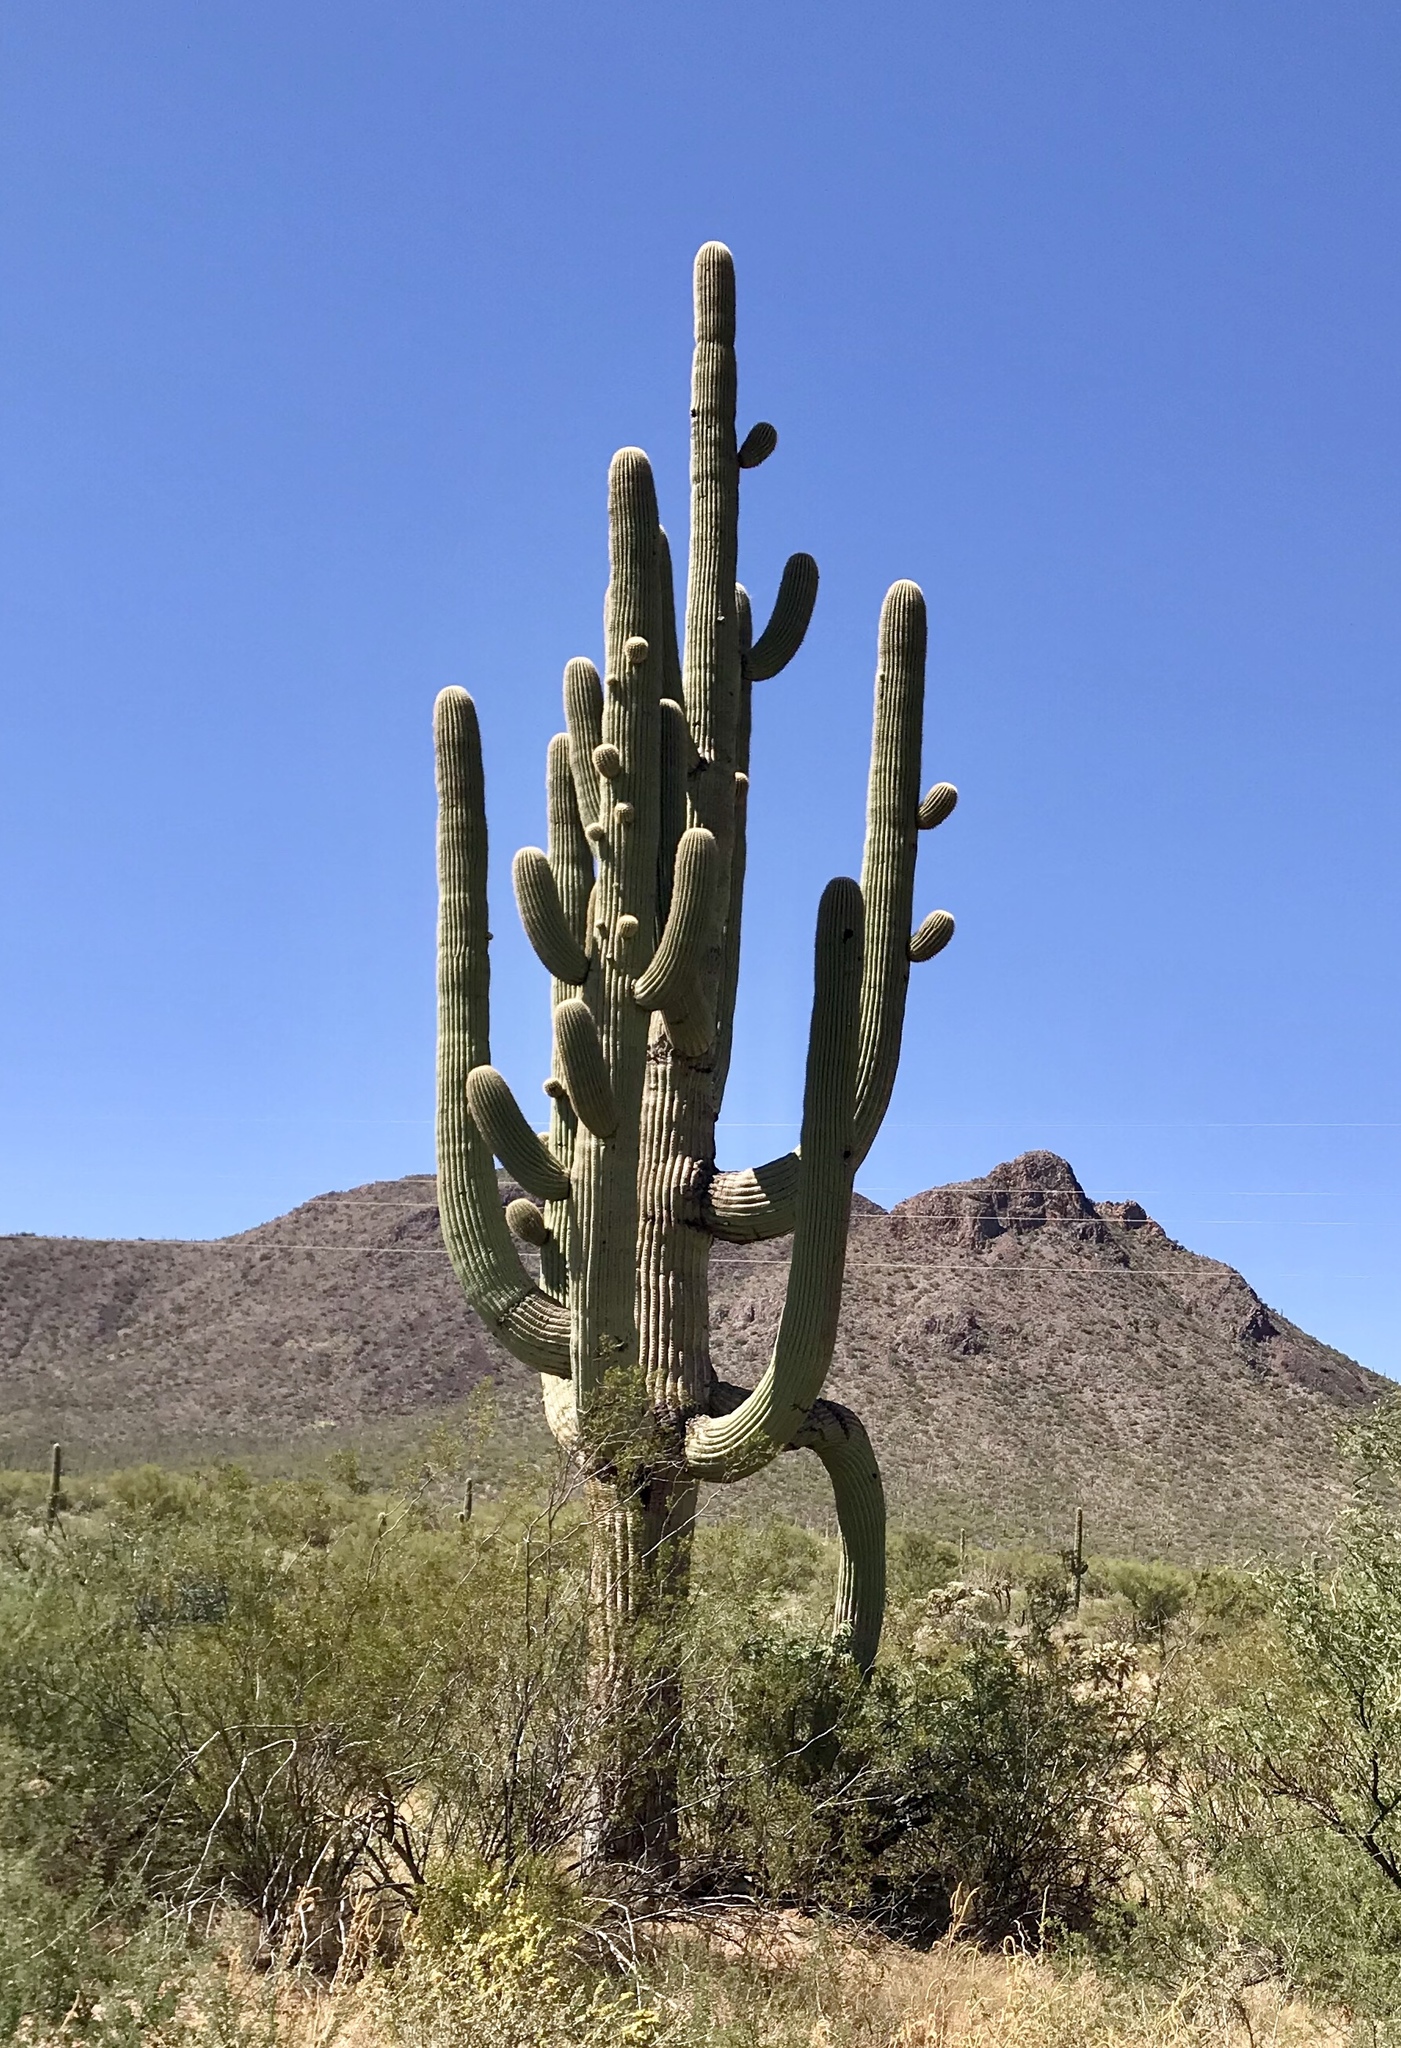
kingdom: Plantae
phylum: Tracheophyta
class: Magnoliopsida
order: Caryophyllales
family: Cactaceae
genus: Carnegiea
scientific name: Carnegiea gigantea
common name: Saguaro
